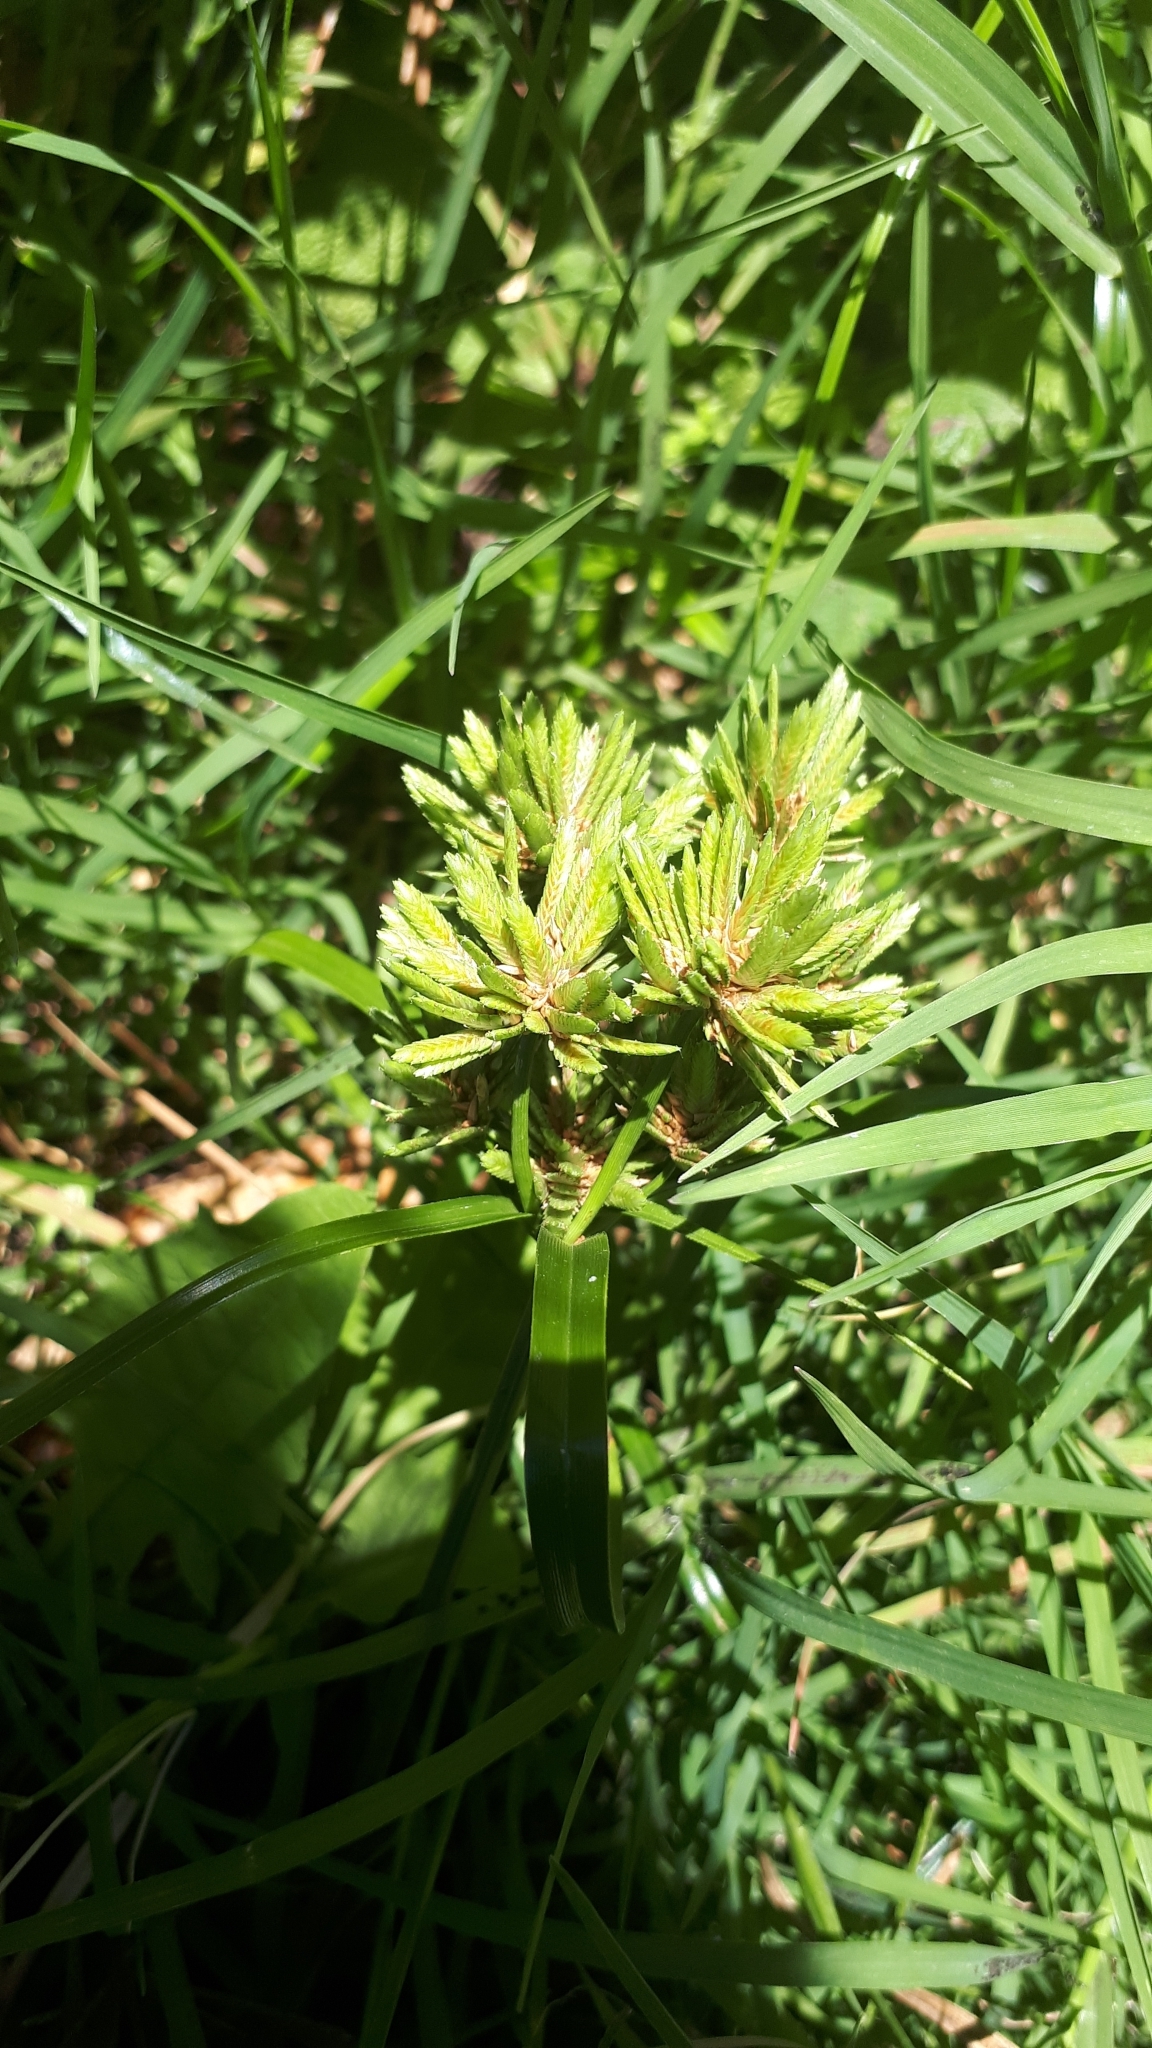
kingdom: Plantae
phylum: Tracheophyta
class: Liliopsida
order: Poales
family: Cyperaceae
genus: Cyperus
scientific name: Cyperus eragrostis
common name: Tall flatsedge
